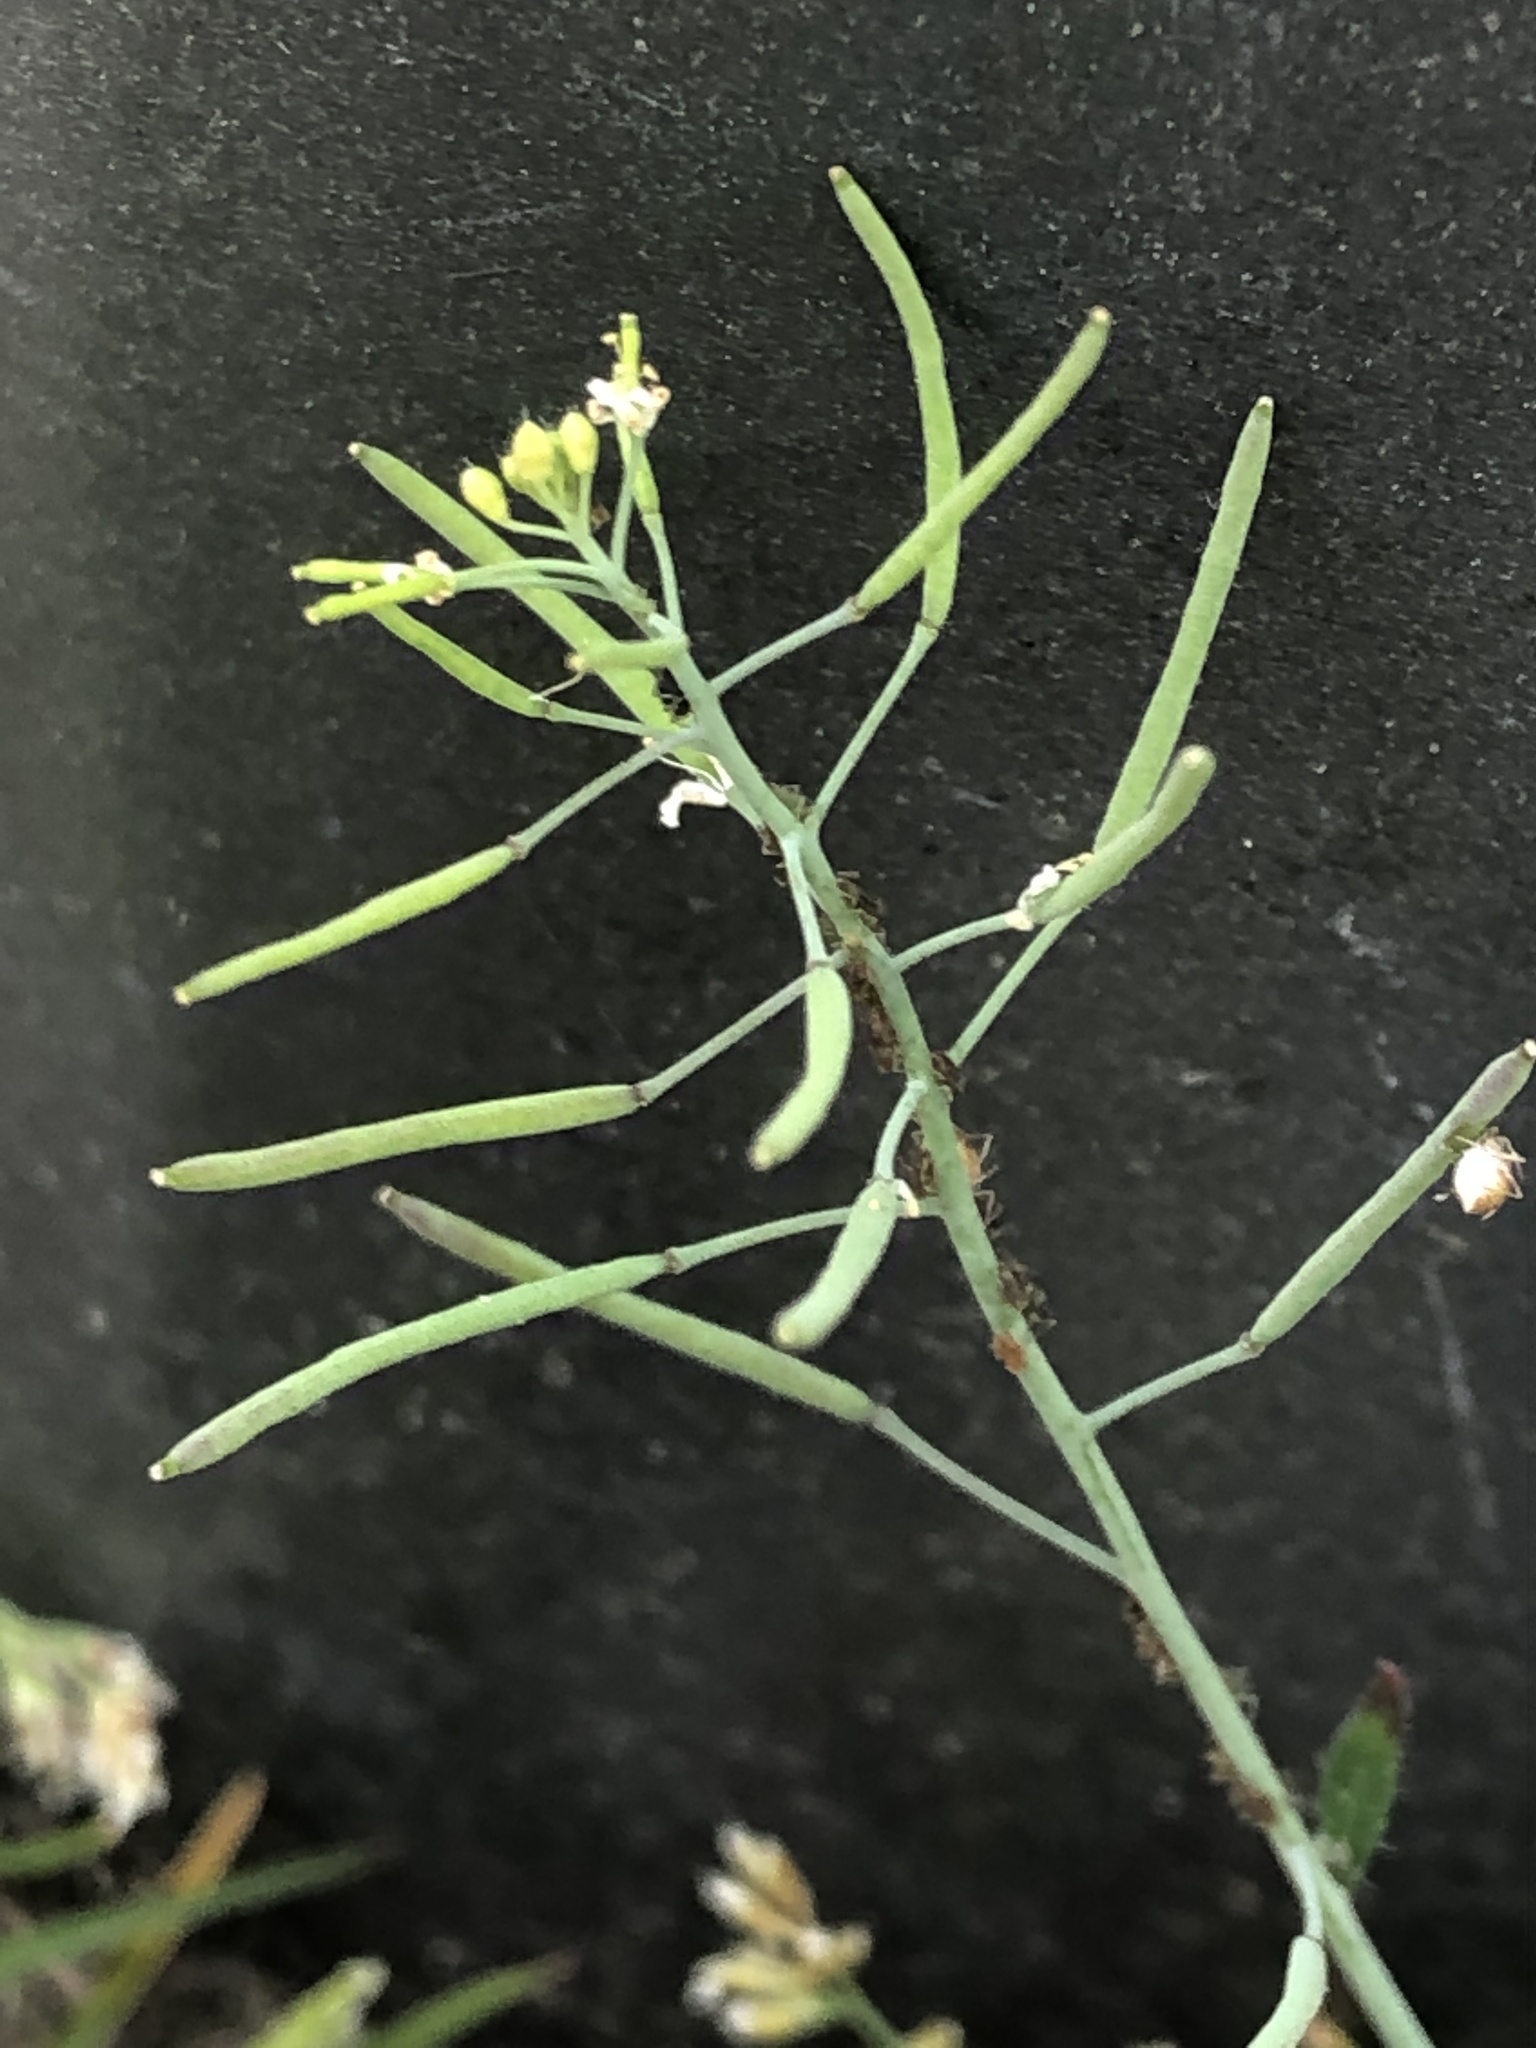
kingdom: Plantae
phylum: Tracheophyta
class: Magnoliopsida
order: Brassicales
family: Brassicaceae
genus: Arabidopsis
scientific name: Arabidopsis thaliana
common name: Thale cress
